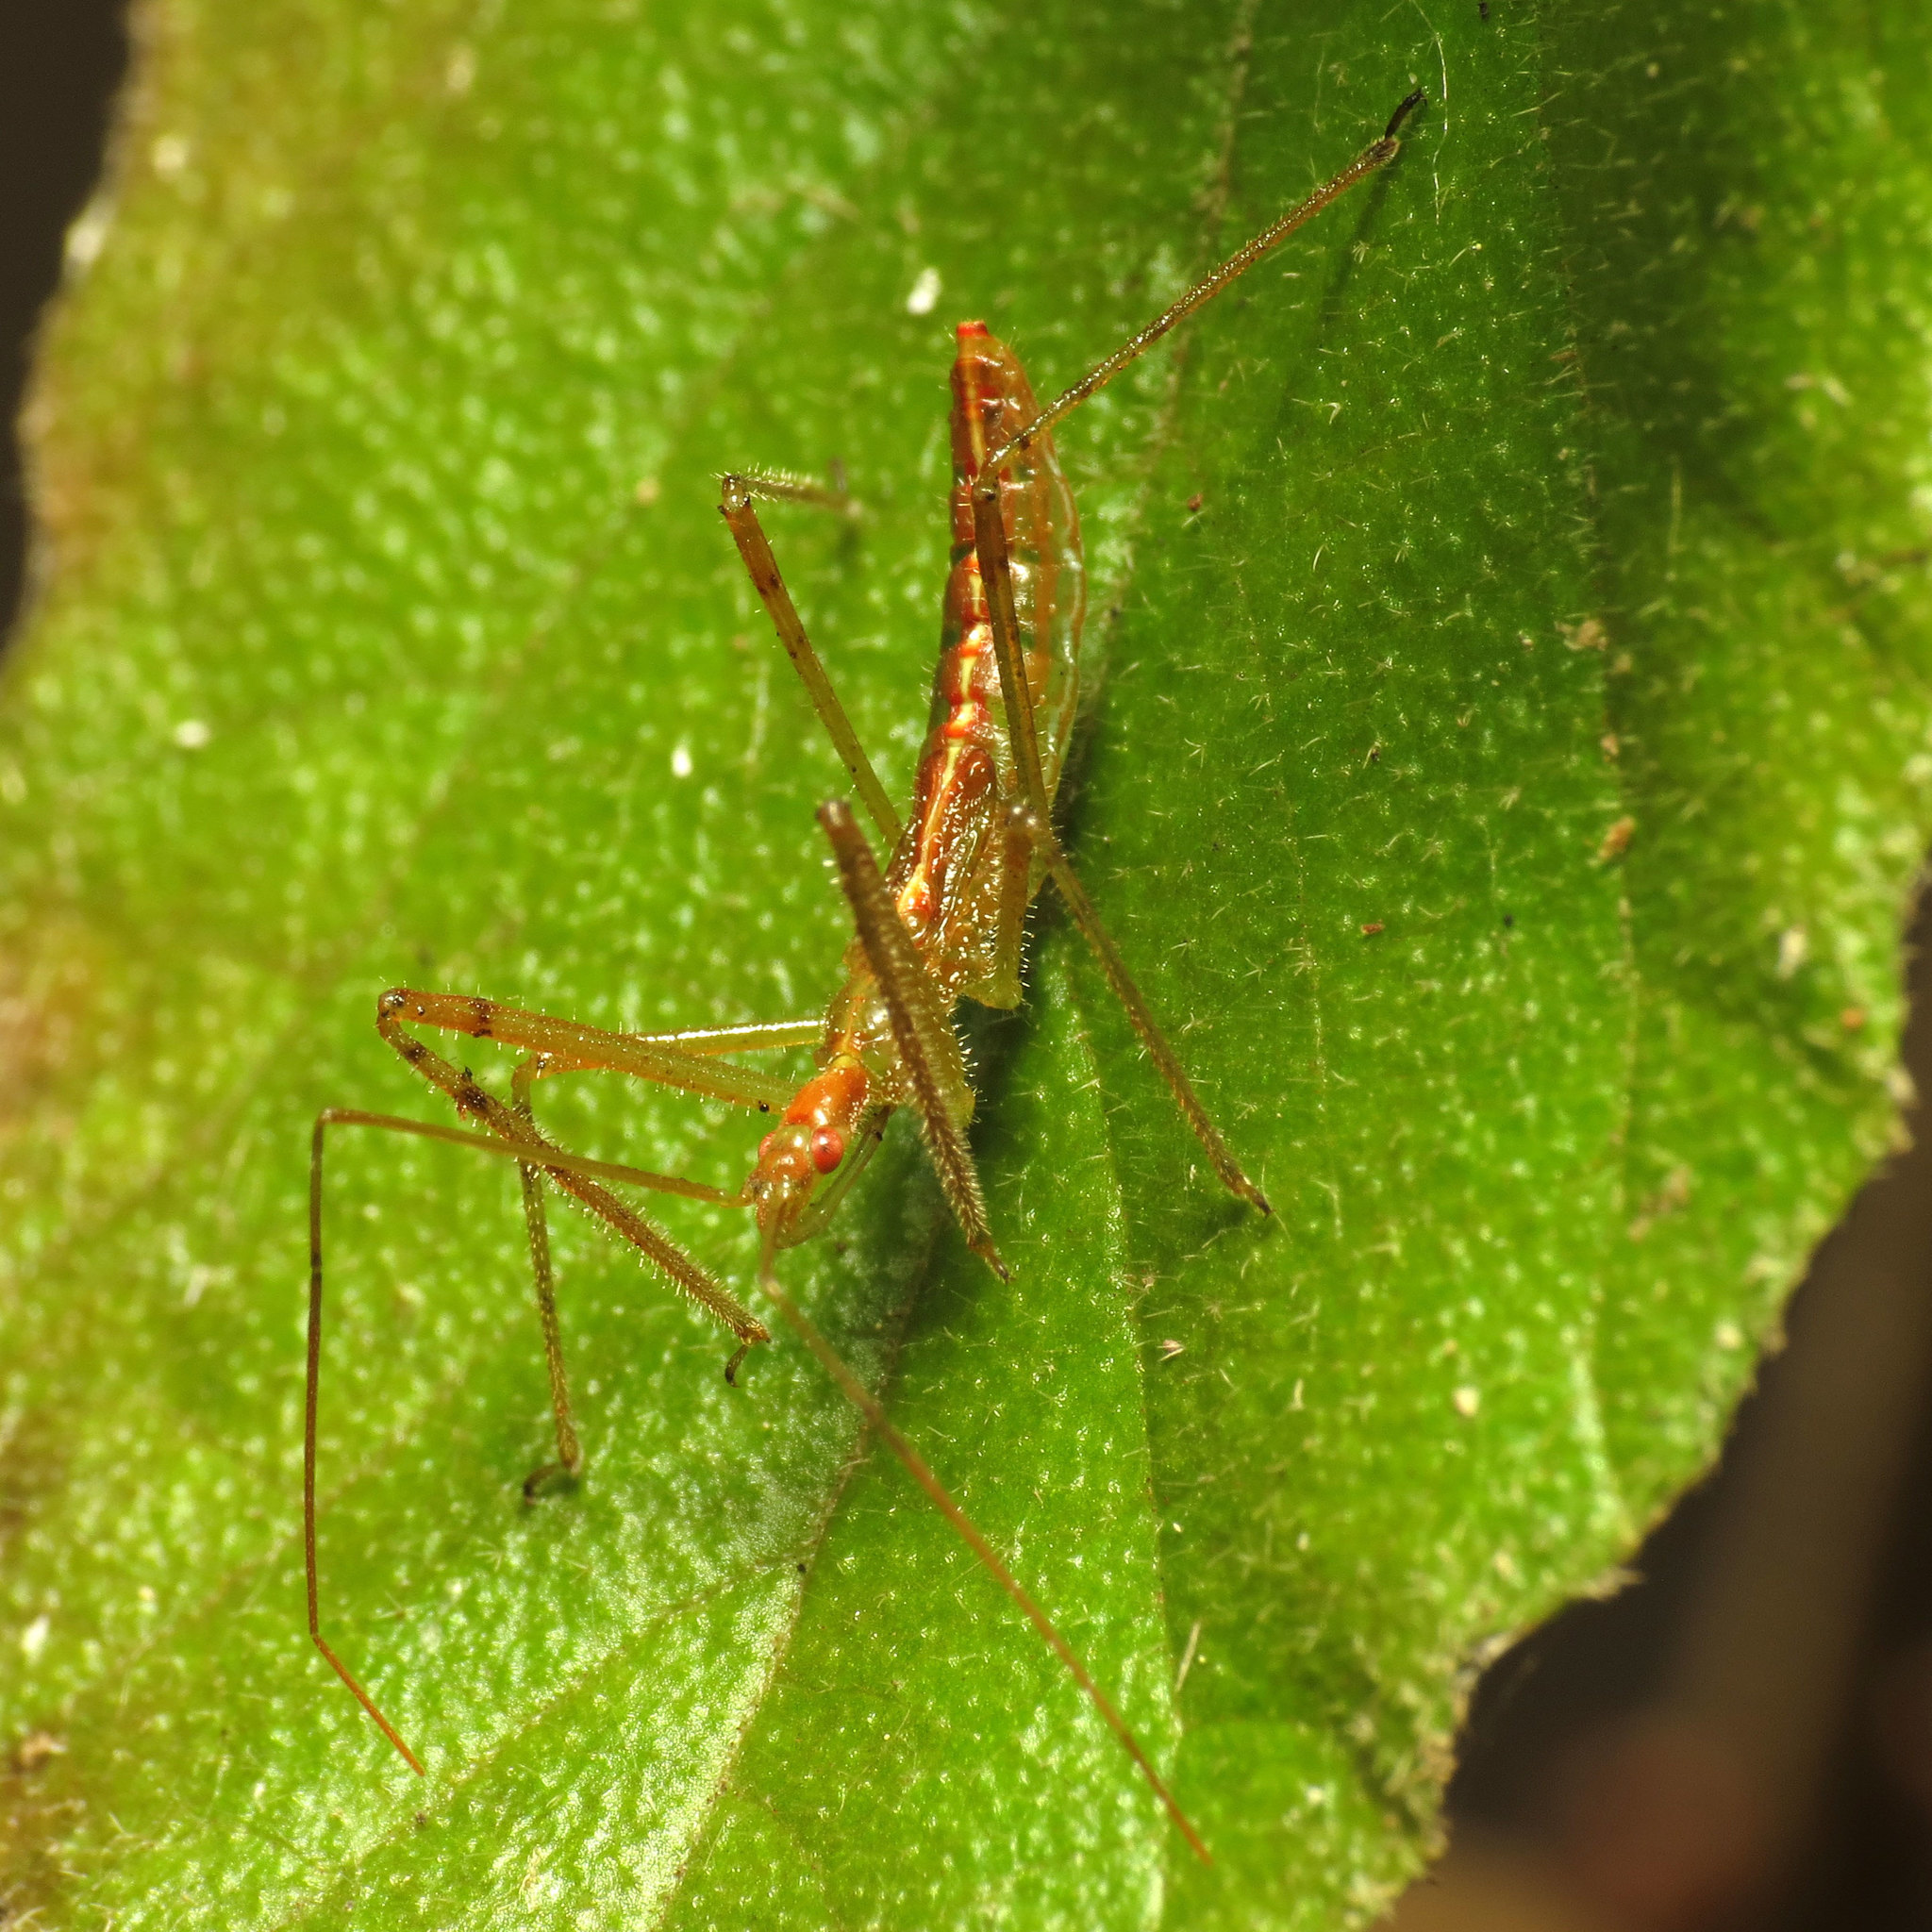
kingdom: Animalia
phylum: Arthropoda
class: Insecta
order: Hemiptera
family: Reduviidae
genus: Zelus
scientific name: Zelus luridus
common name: Pale green assassin bug
